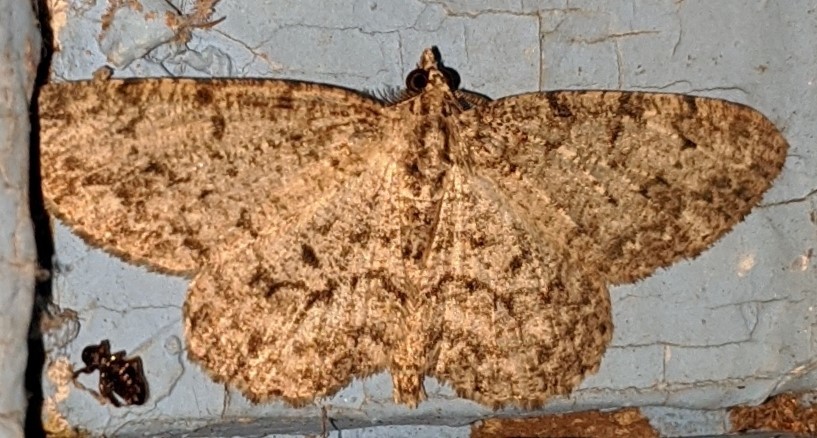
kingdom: Animalia
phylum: Arthropoda
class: Insecta
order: Lepidoptera
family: Geometridae
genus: Protoboarmia
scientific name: Protoboarmia porcelaria
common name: Porcelain gray
